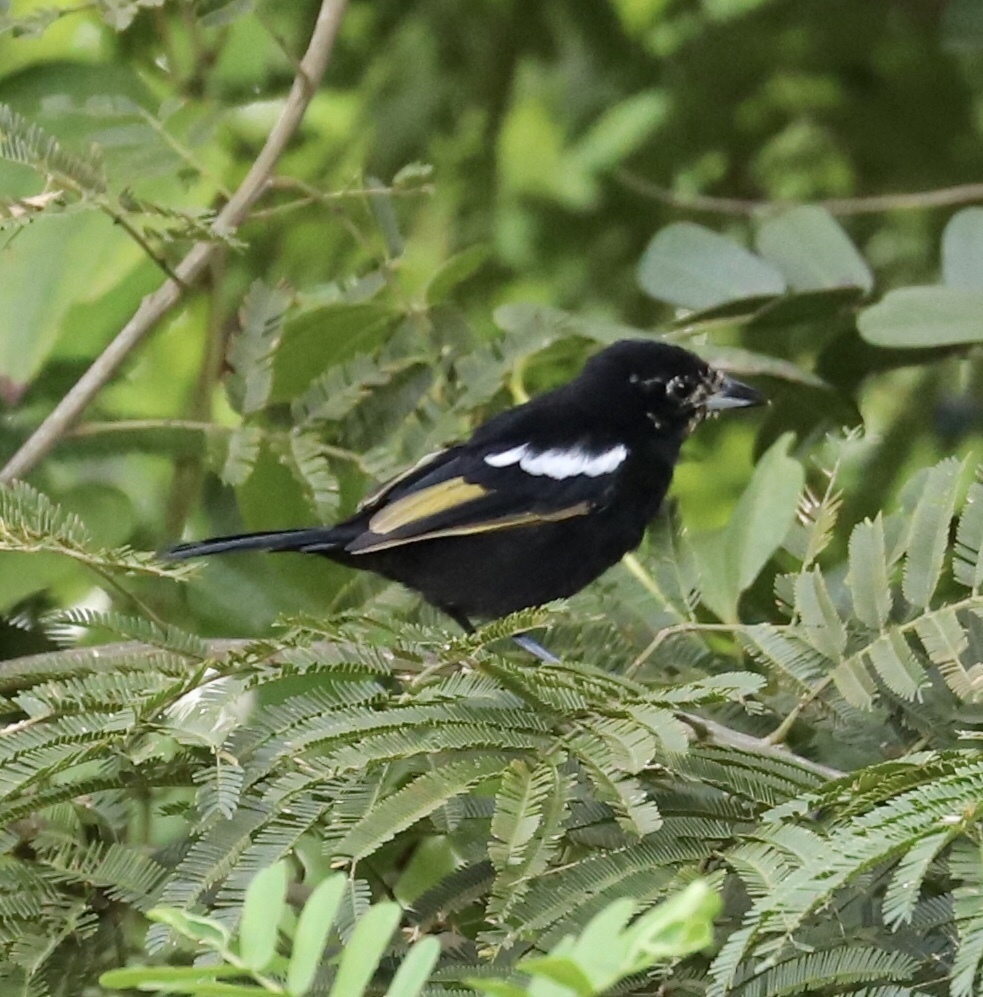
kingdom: Animalia
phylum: Chordata
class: Aves
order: Passeriformes
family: Thraupidae
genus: Loriotus
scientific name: Loriotus luctuosus
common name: White-shouldered tanager
